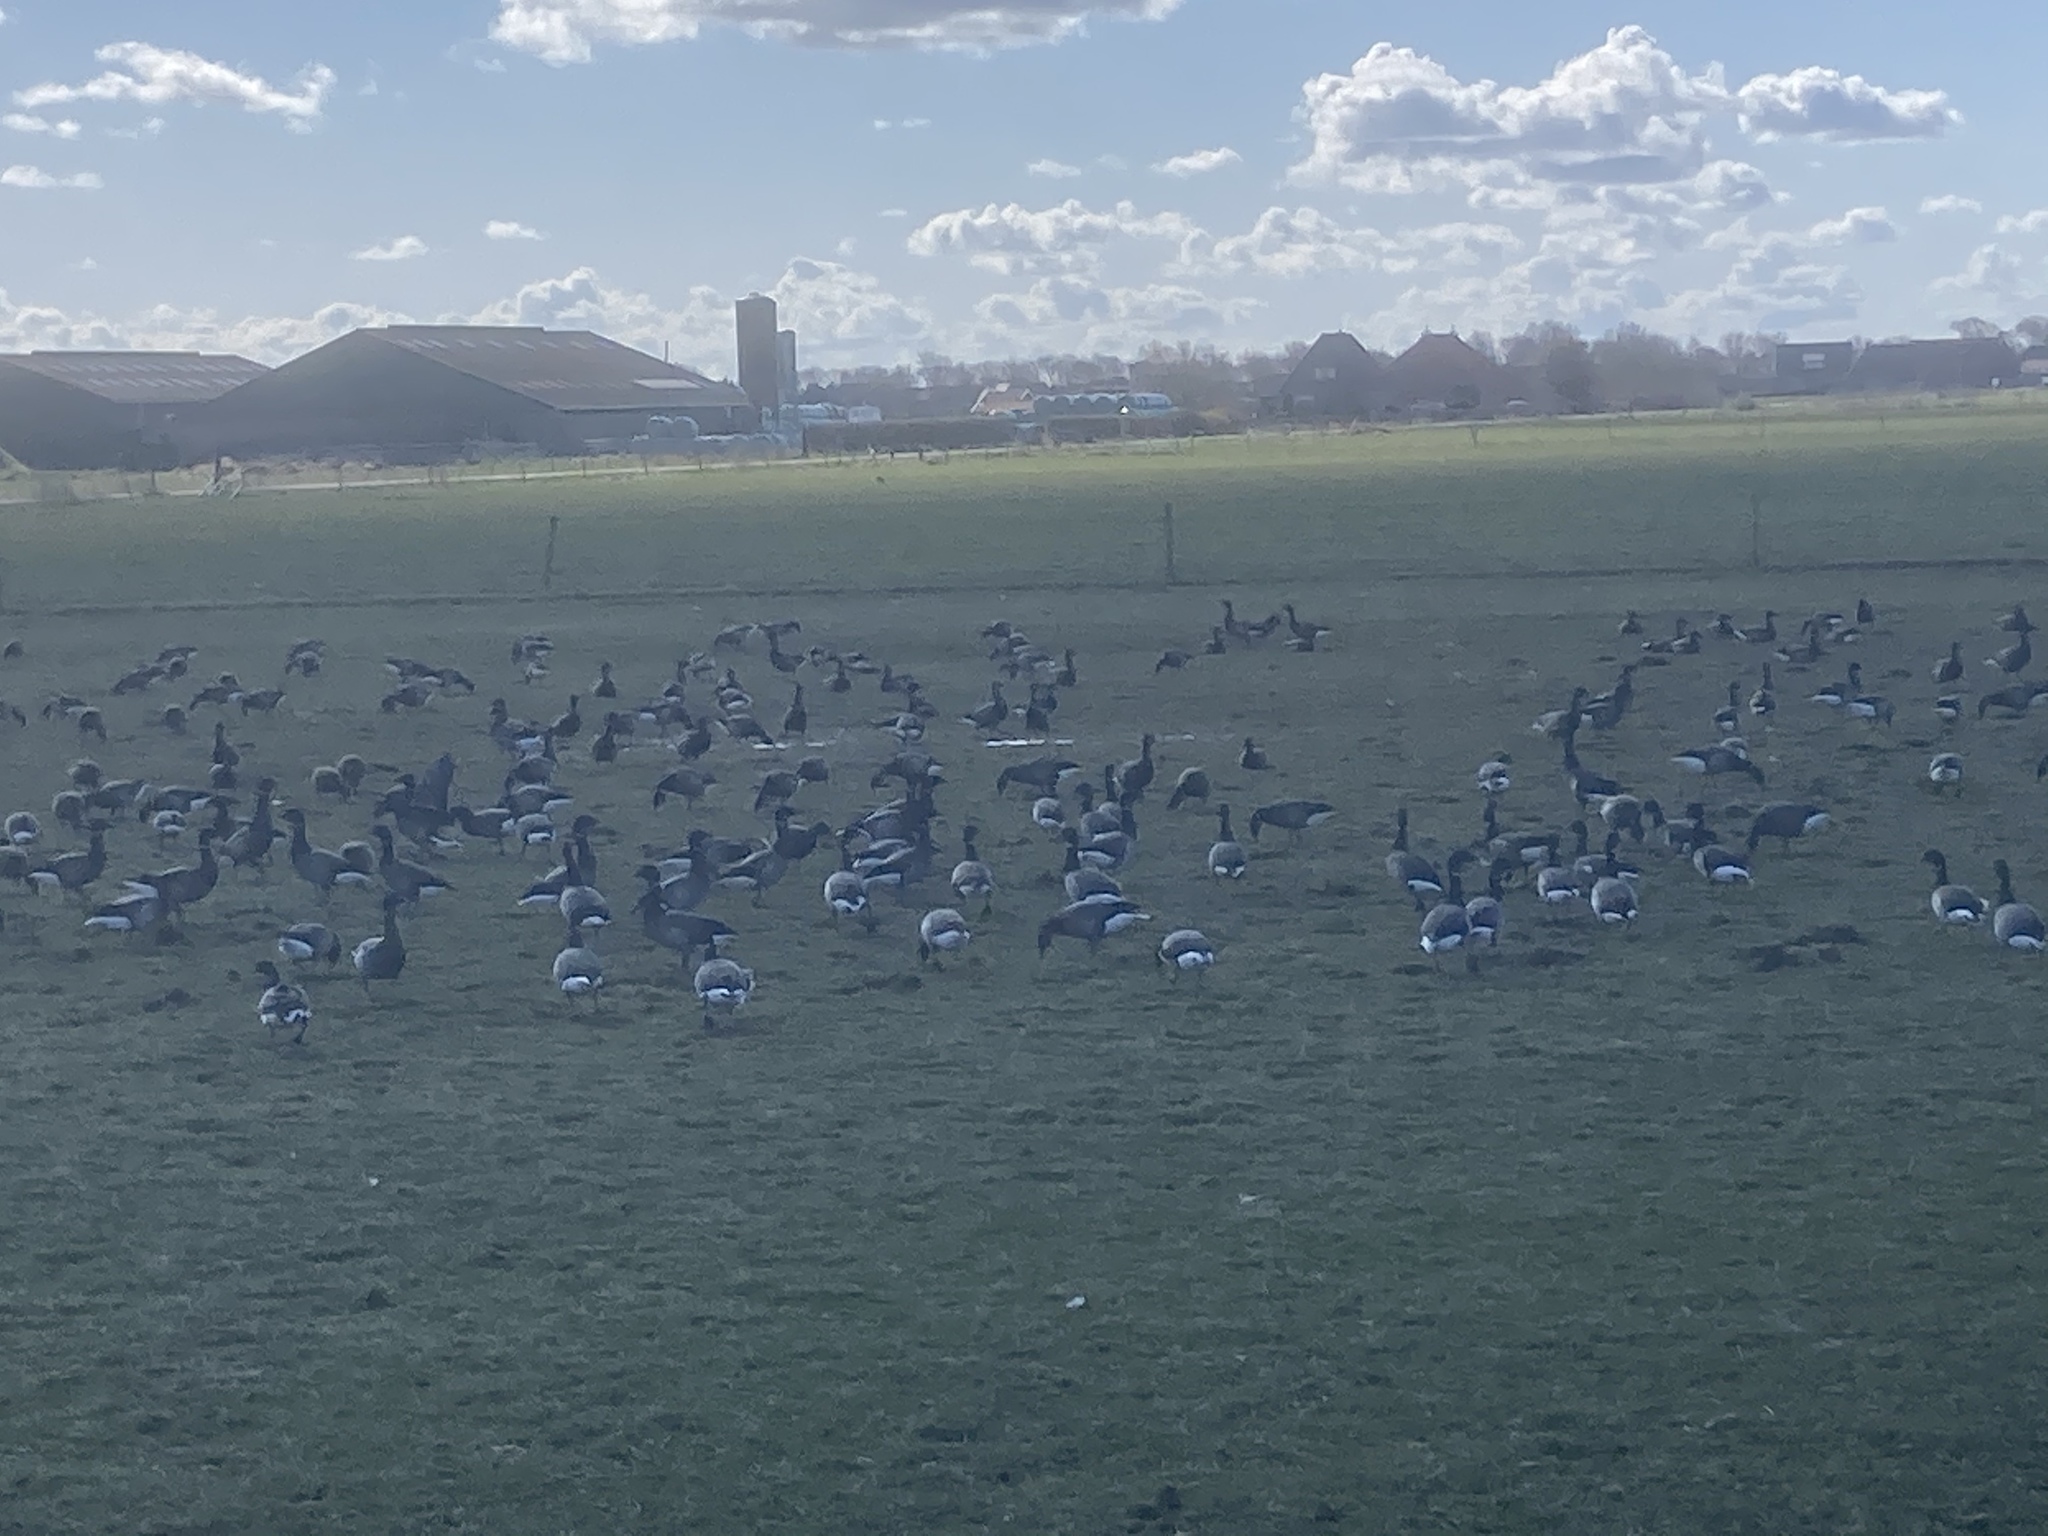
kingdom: Animalia
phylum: Chordata
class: Aves
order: Anseriformes
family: Anatidae
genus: Branta
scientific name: Branta bernicla
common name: Brant goose
